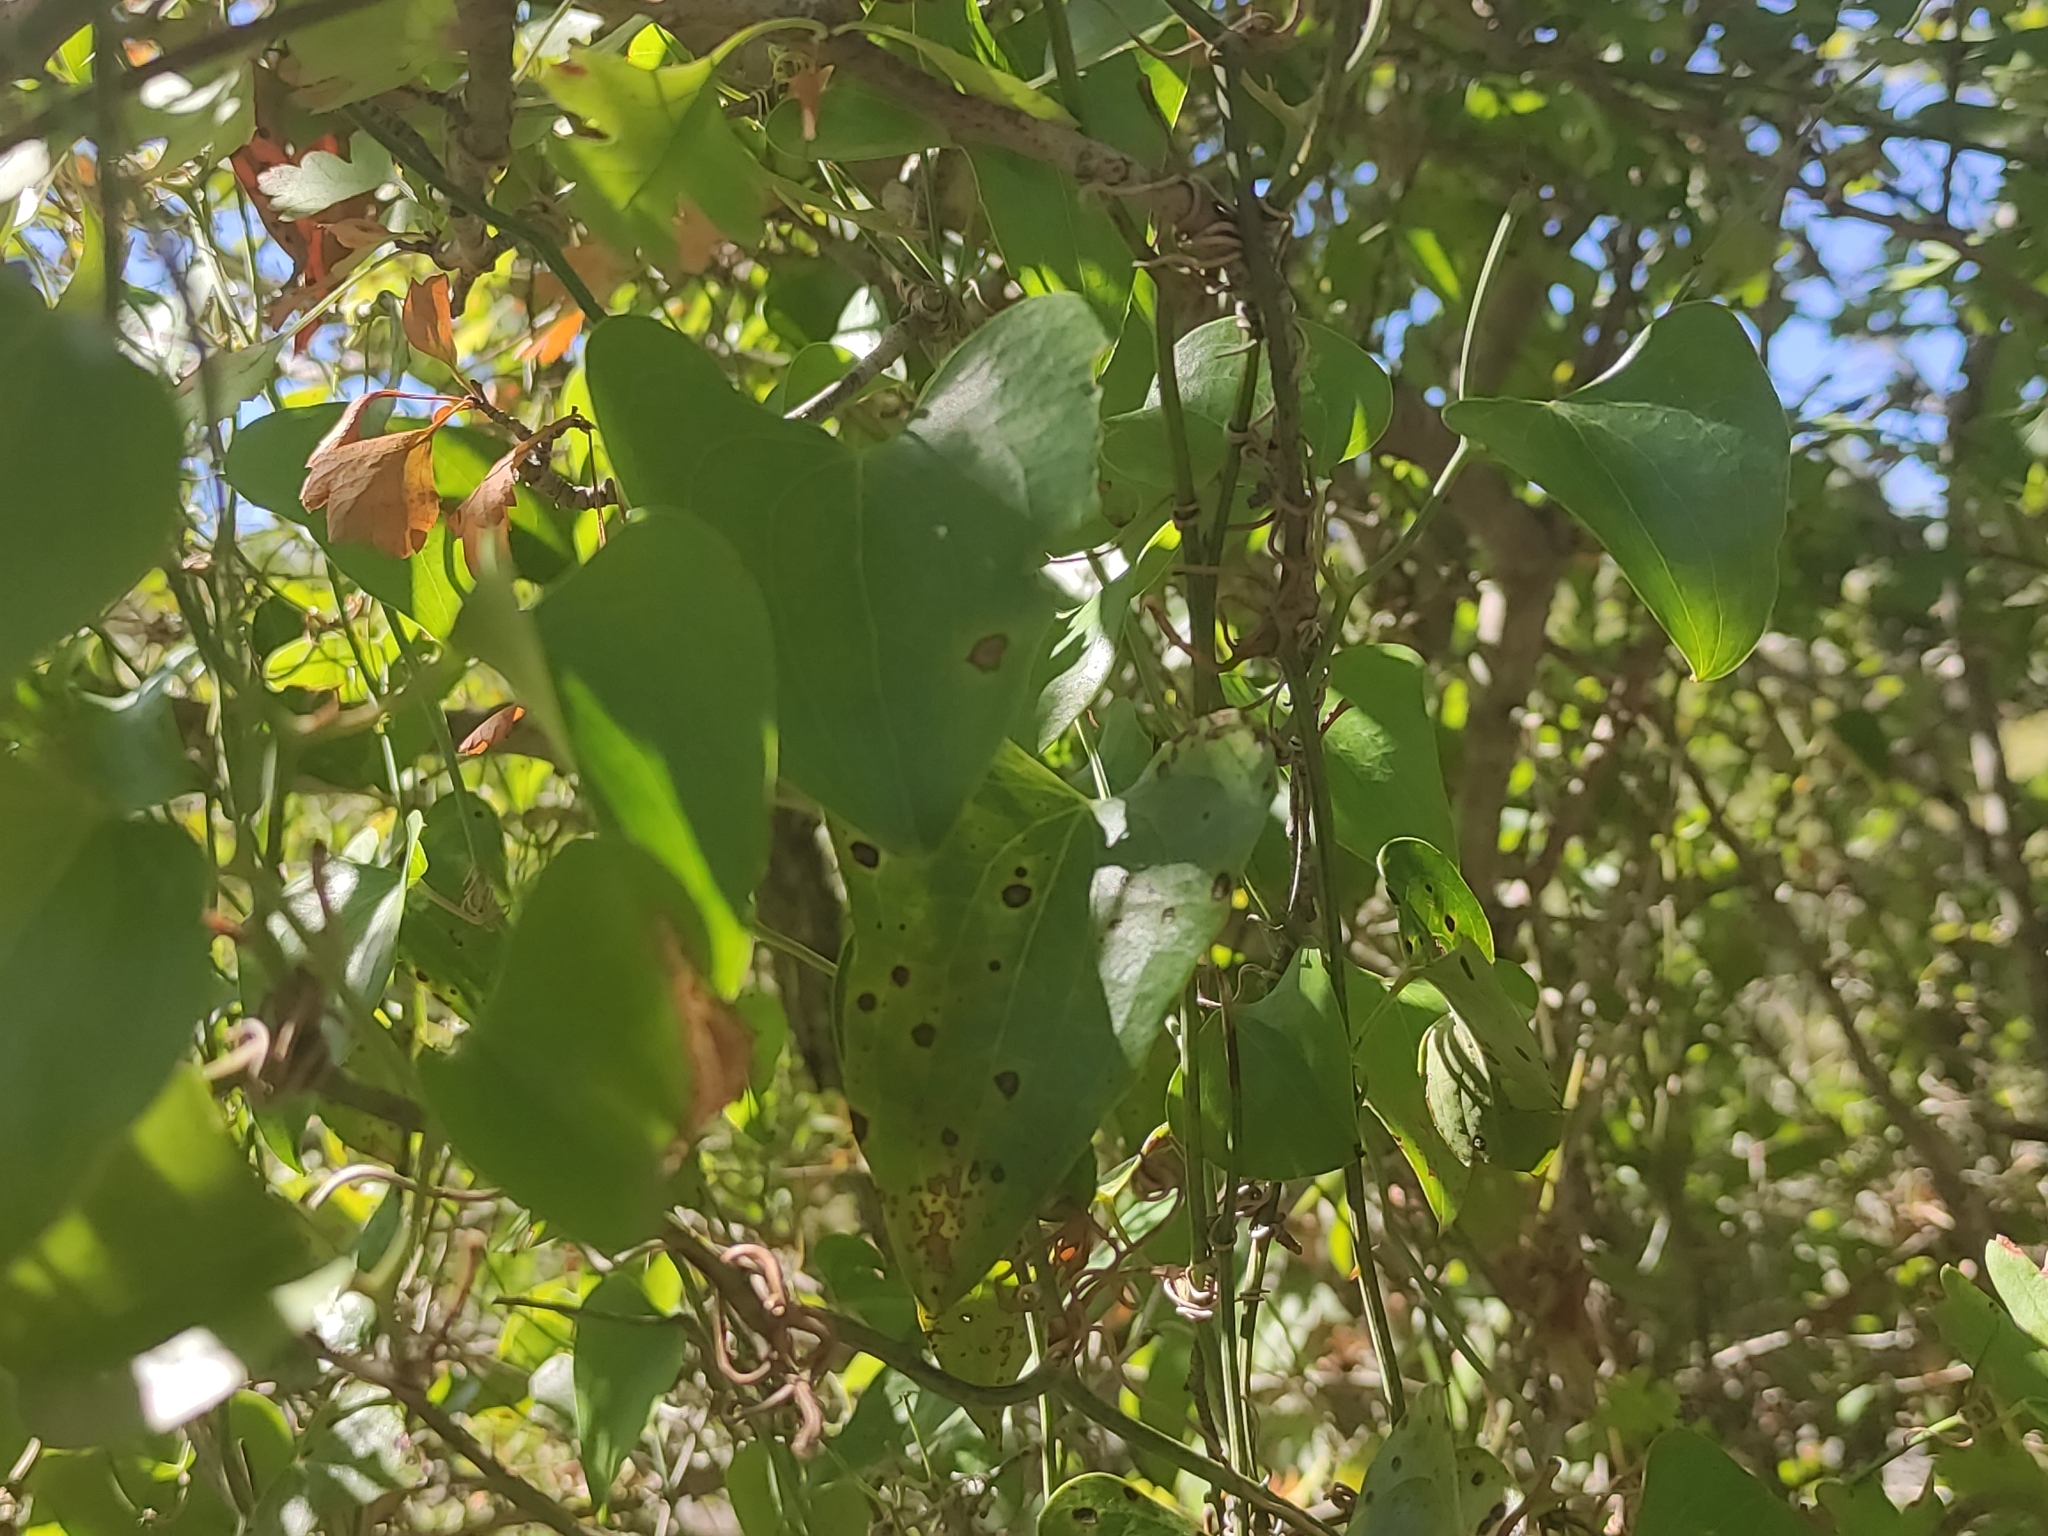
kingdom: Plantae
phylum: Tracheophyta
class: Liliopsida
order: Liliales
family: Smilacaceae
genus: Smilax
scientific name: Smilax aspera
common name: Common smilax
